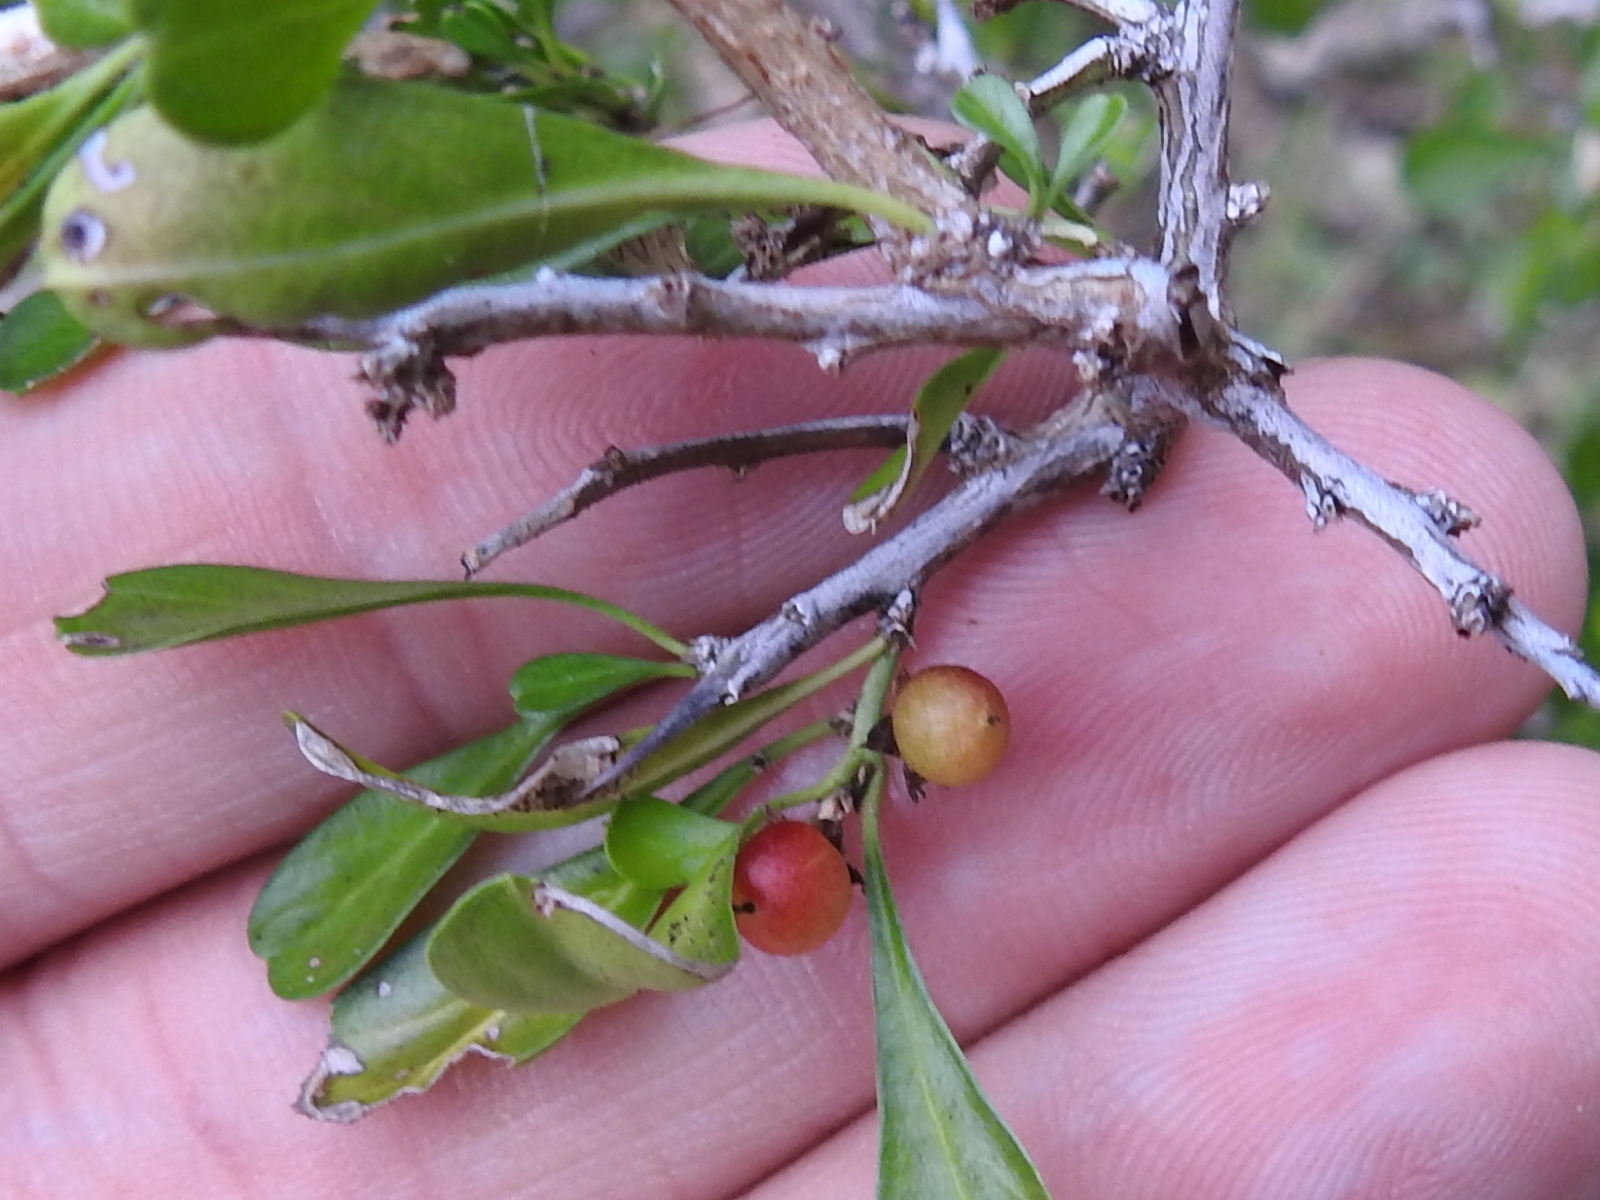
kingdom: Plantae
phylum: Tracheophyta
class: Magnoliopsida
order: Rosales
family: Rhamnaceae
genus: Condalia
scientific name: Condalia hookeri
